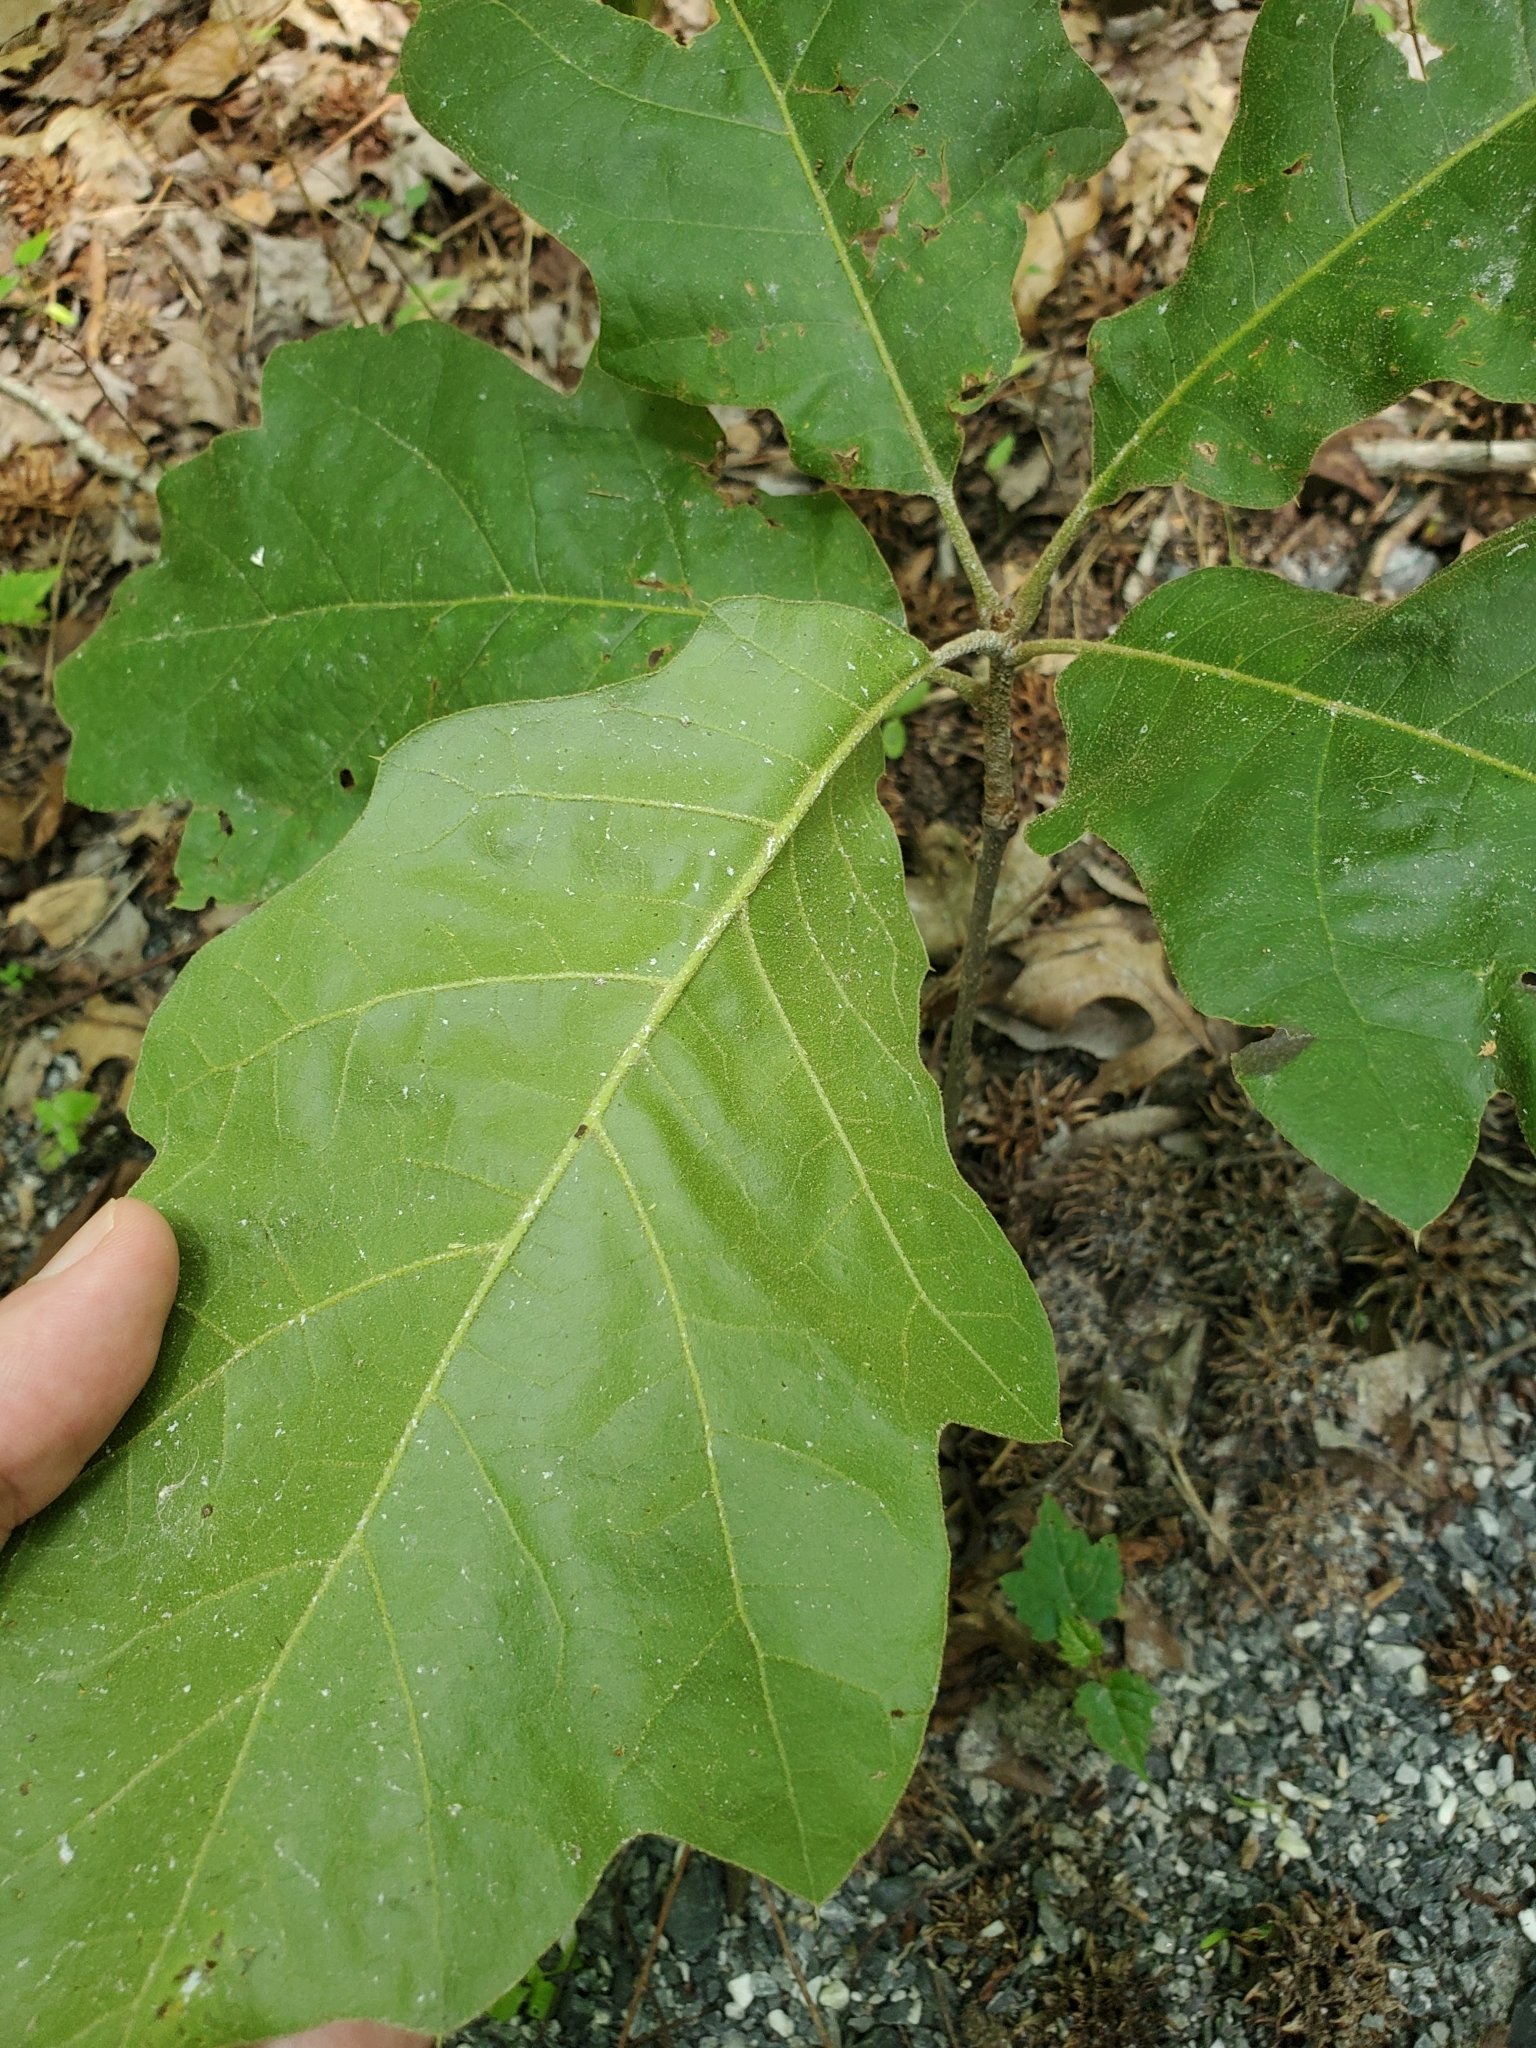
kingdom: Plantae
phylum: Tracheophyta
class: Magnoliopsida
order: Fagales
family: Fagaceae
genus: Quercus
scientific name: Quercus velutina
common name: Black oak
